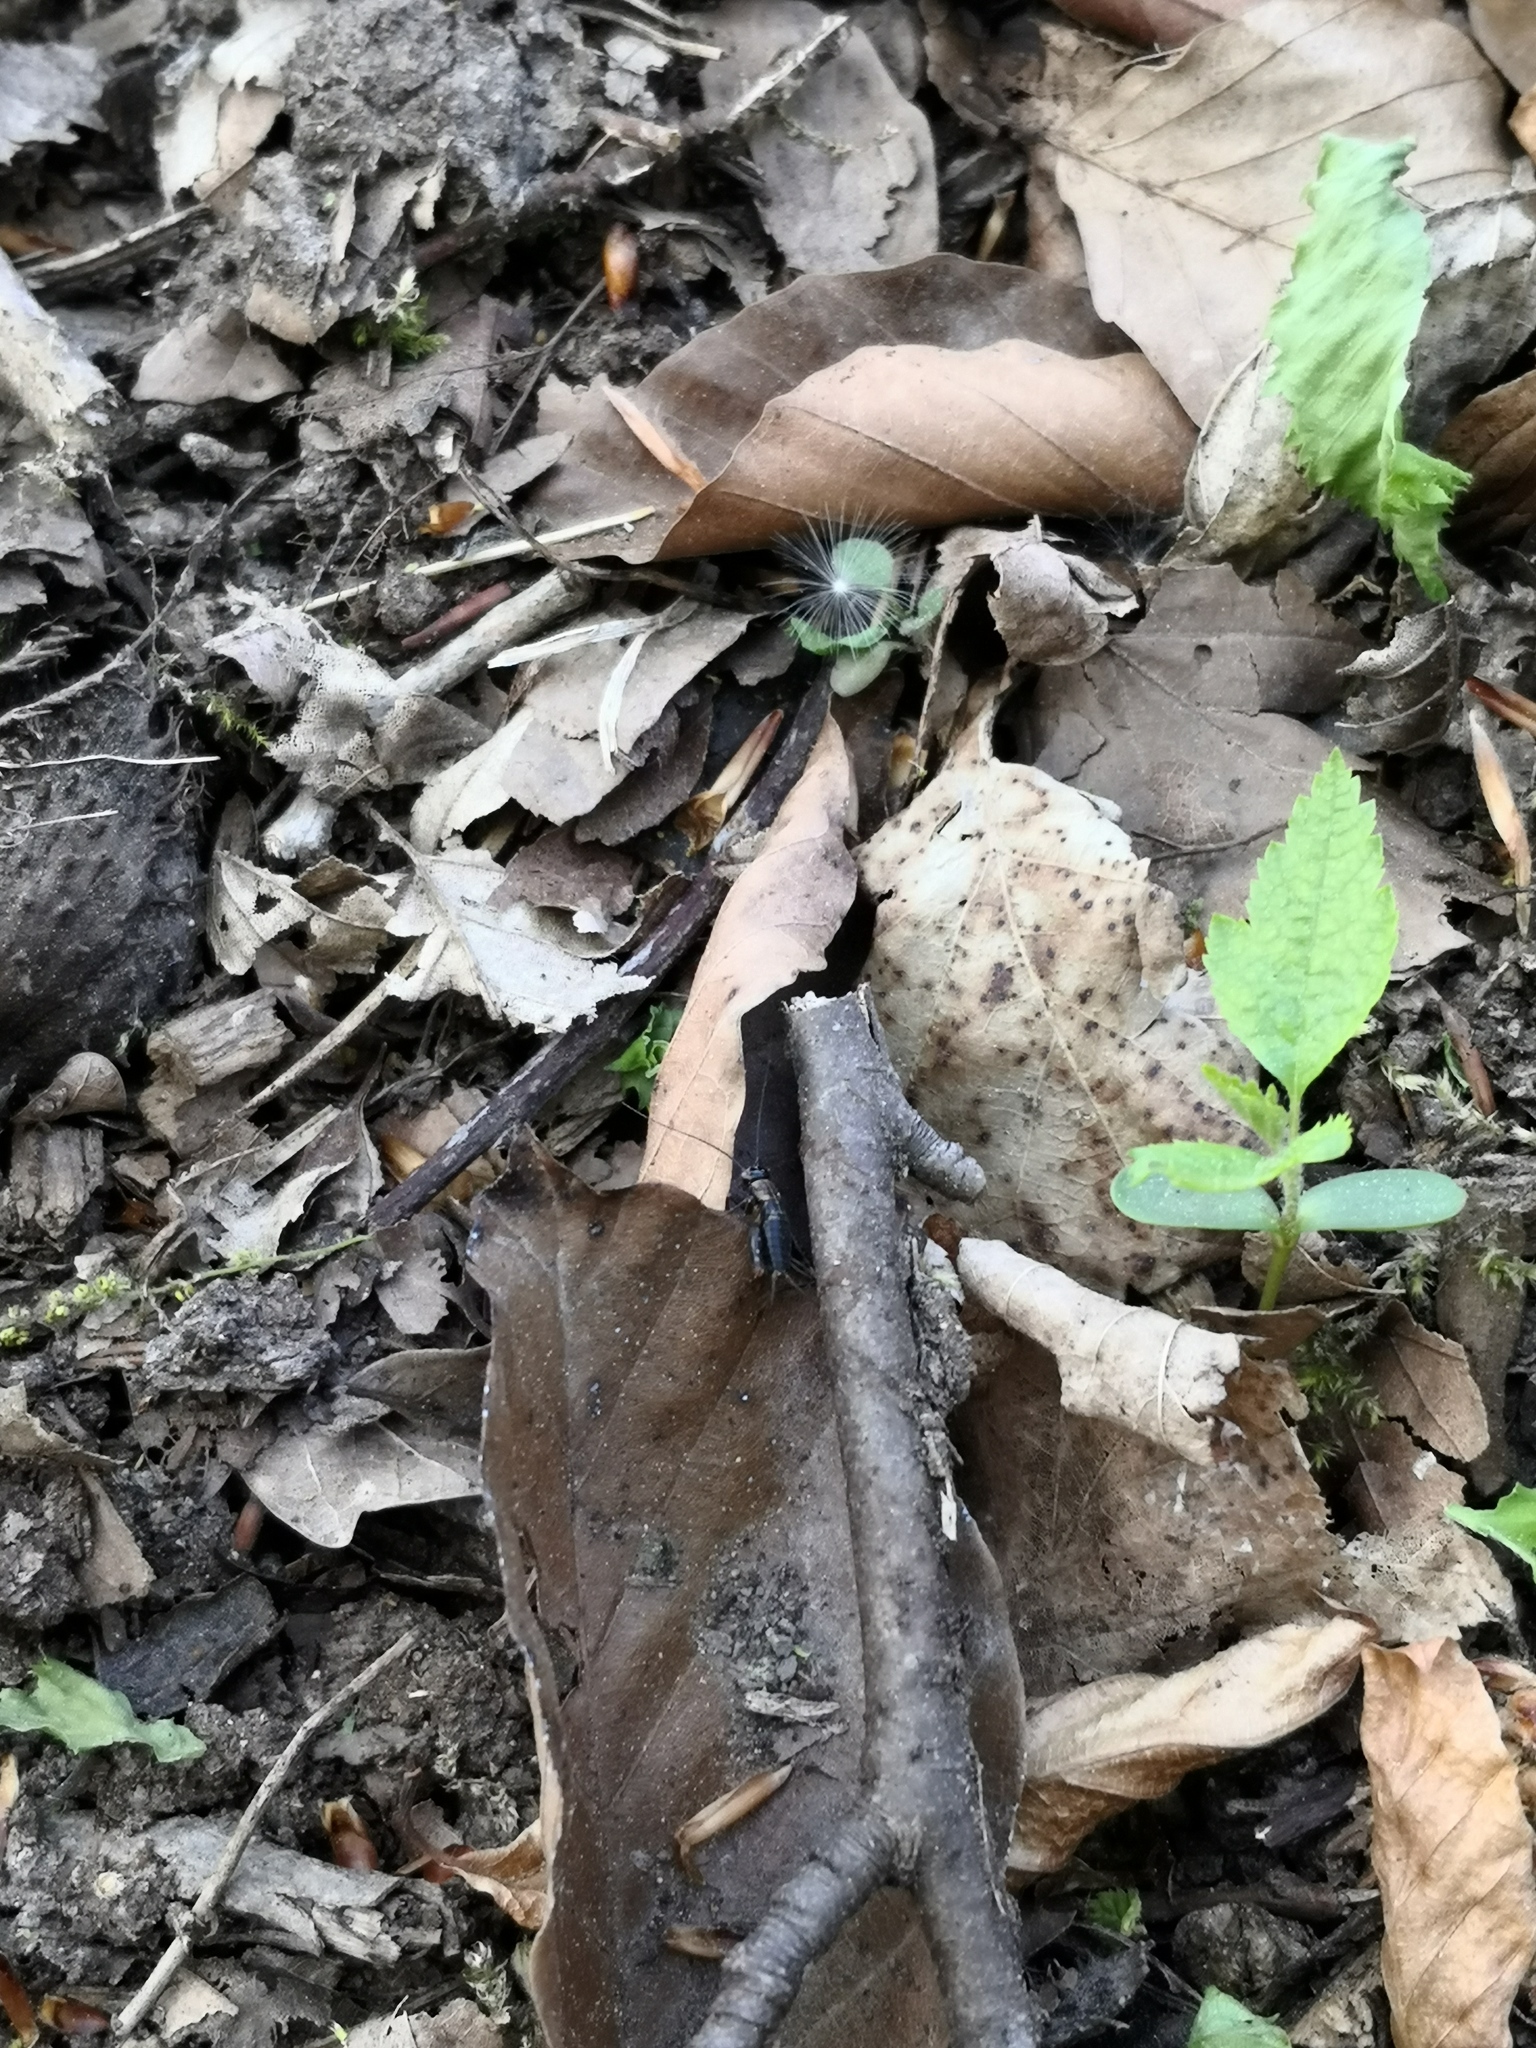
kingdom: Animalia
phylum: Arthropoda
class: Insecta
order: Orthoptera
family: Trigonidiidae
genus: Nemobius
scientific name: Nemobius sylvestris
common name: Wood-cricket
